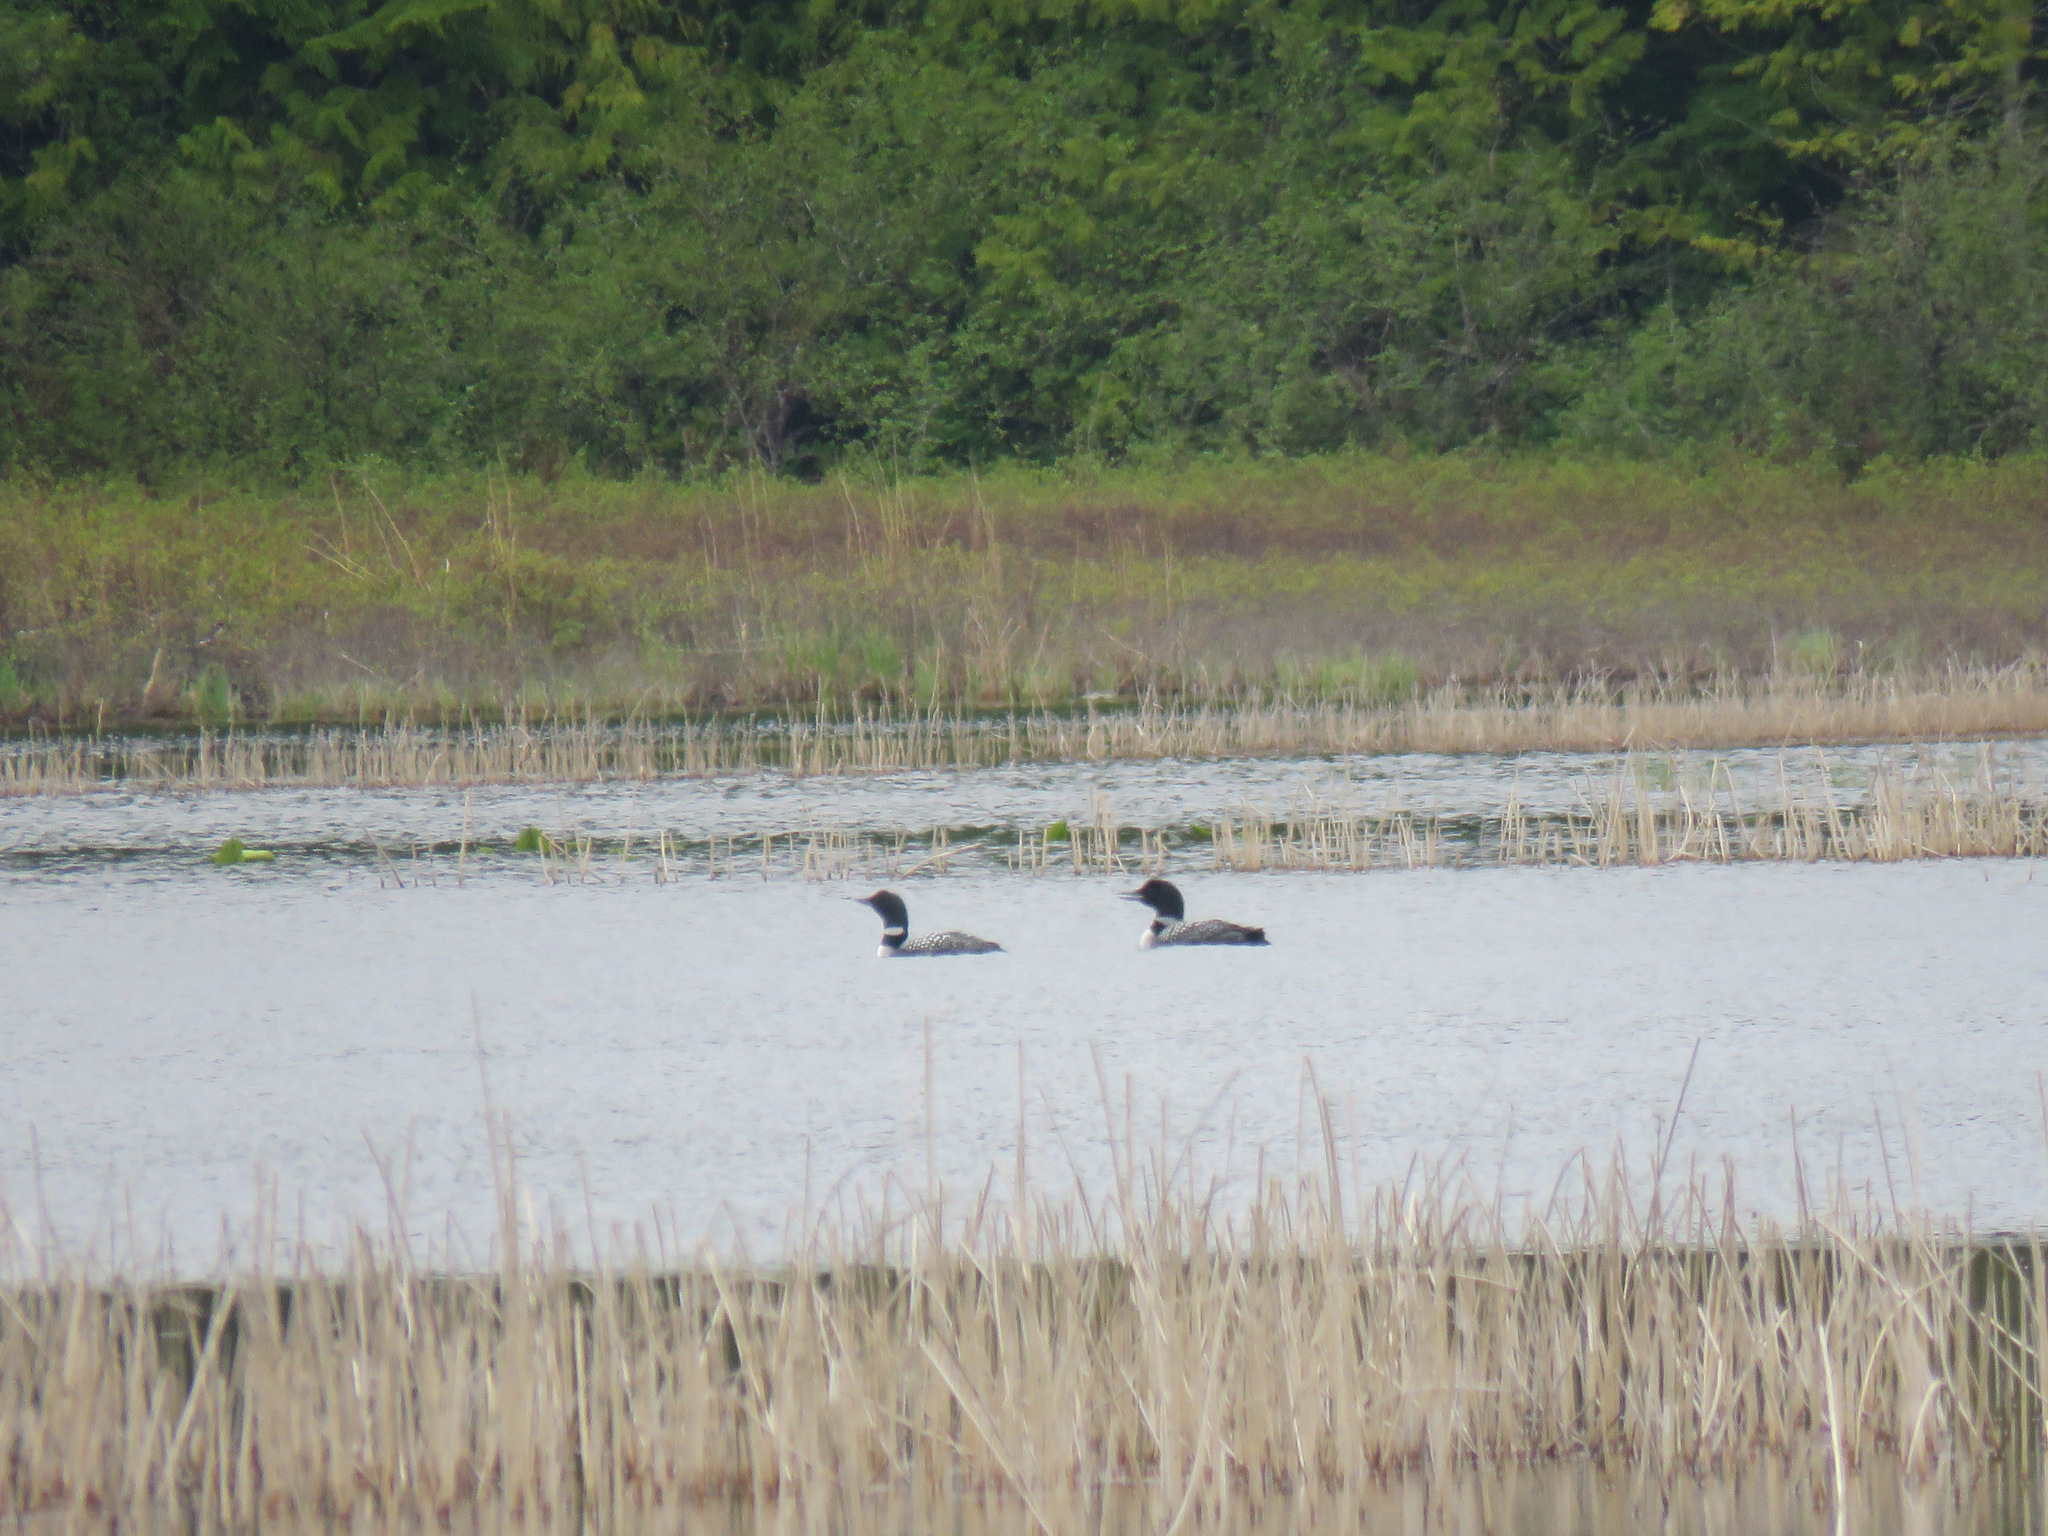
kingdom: Animalia
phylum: Chordata
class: Aves
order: Gaviiformes
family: Gaviidae
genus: Gavia
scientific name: Gavia immer
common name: Common loon
